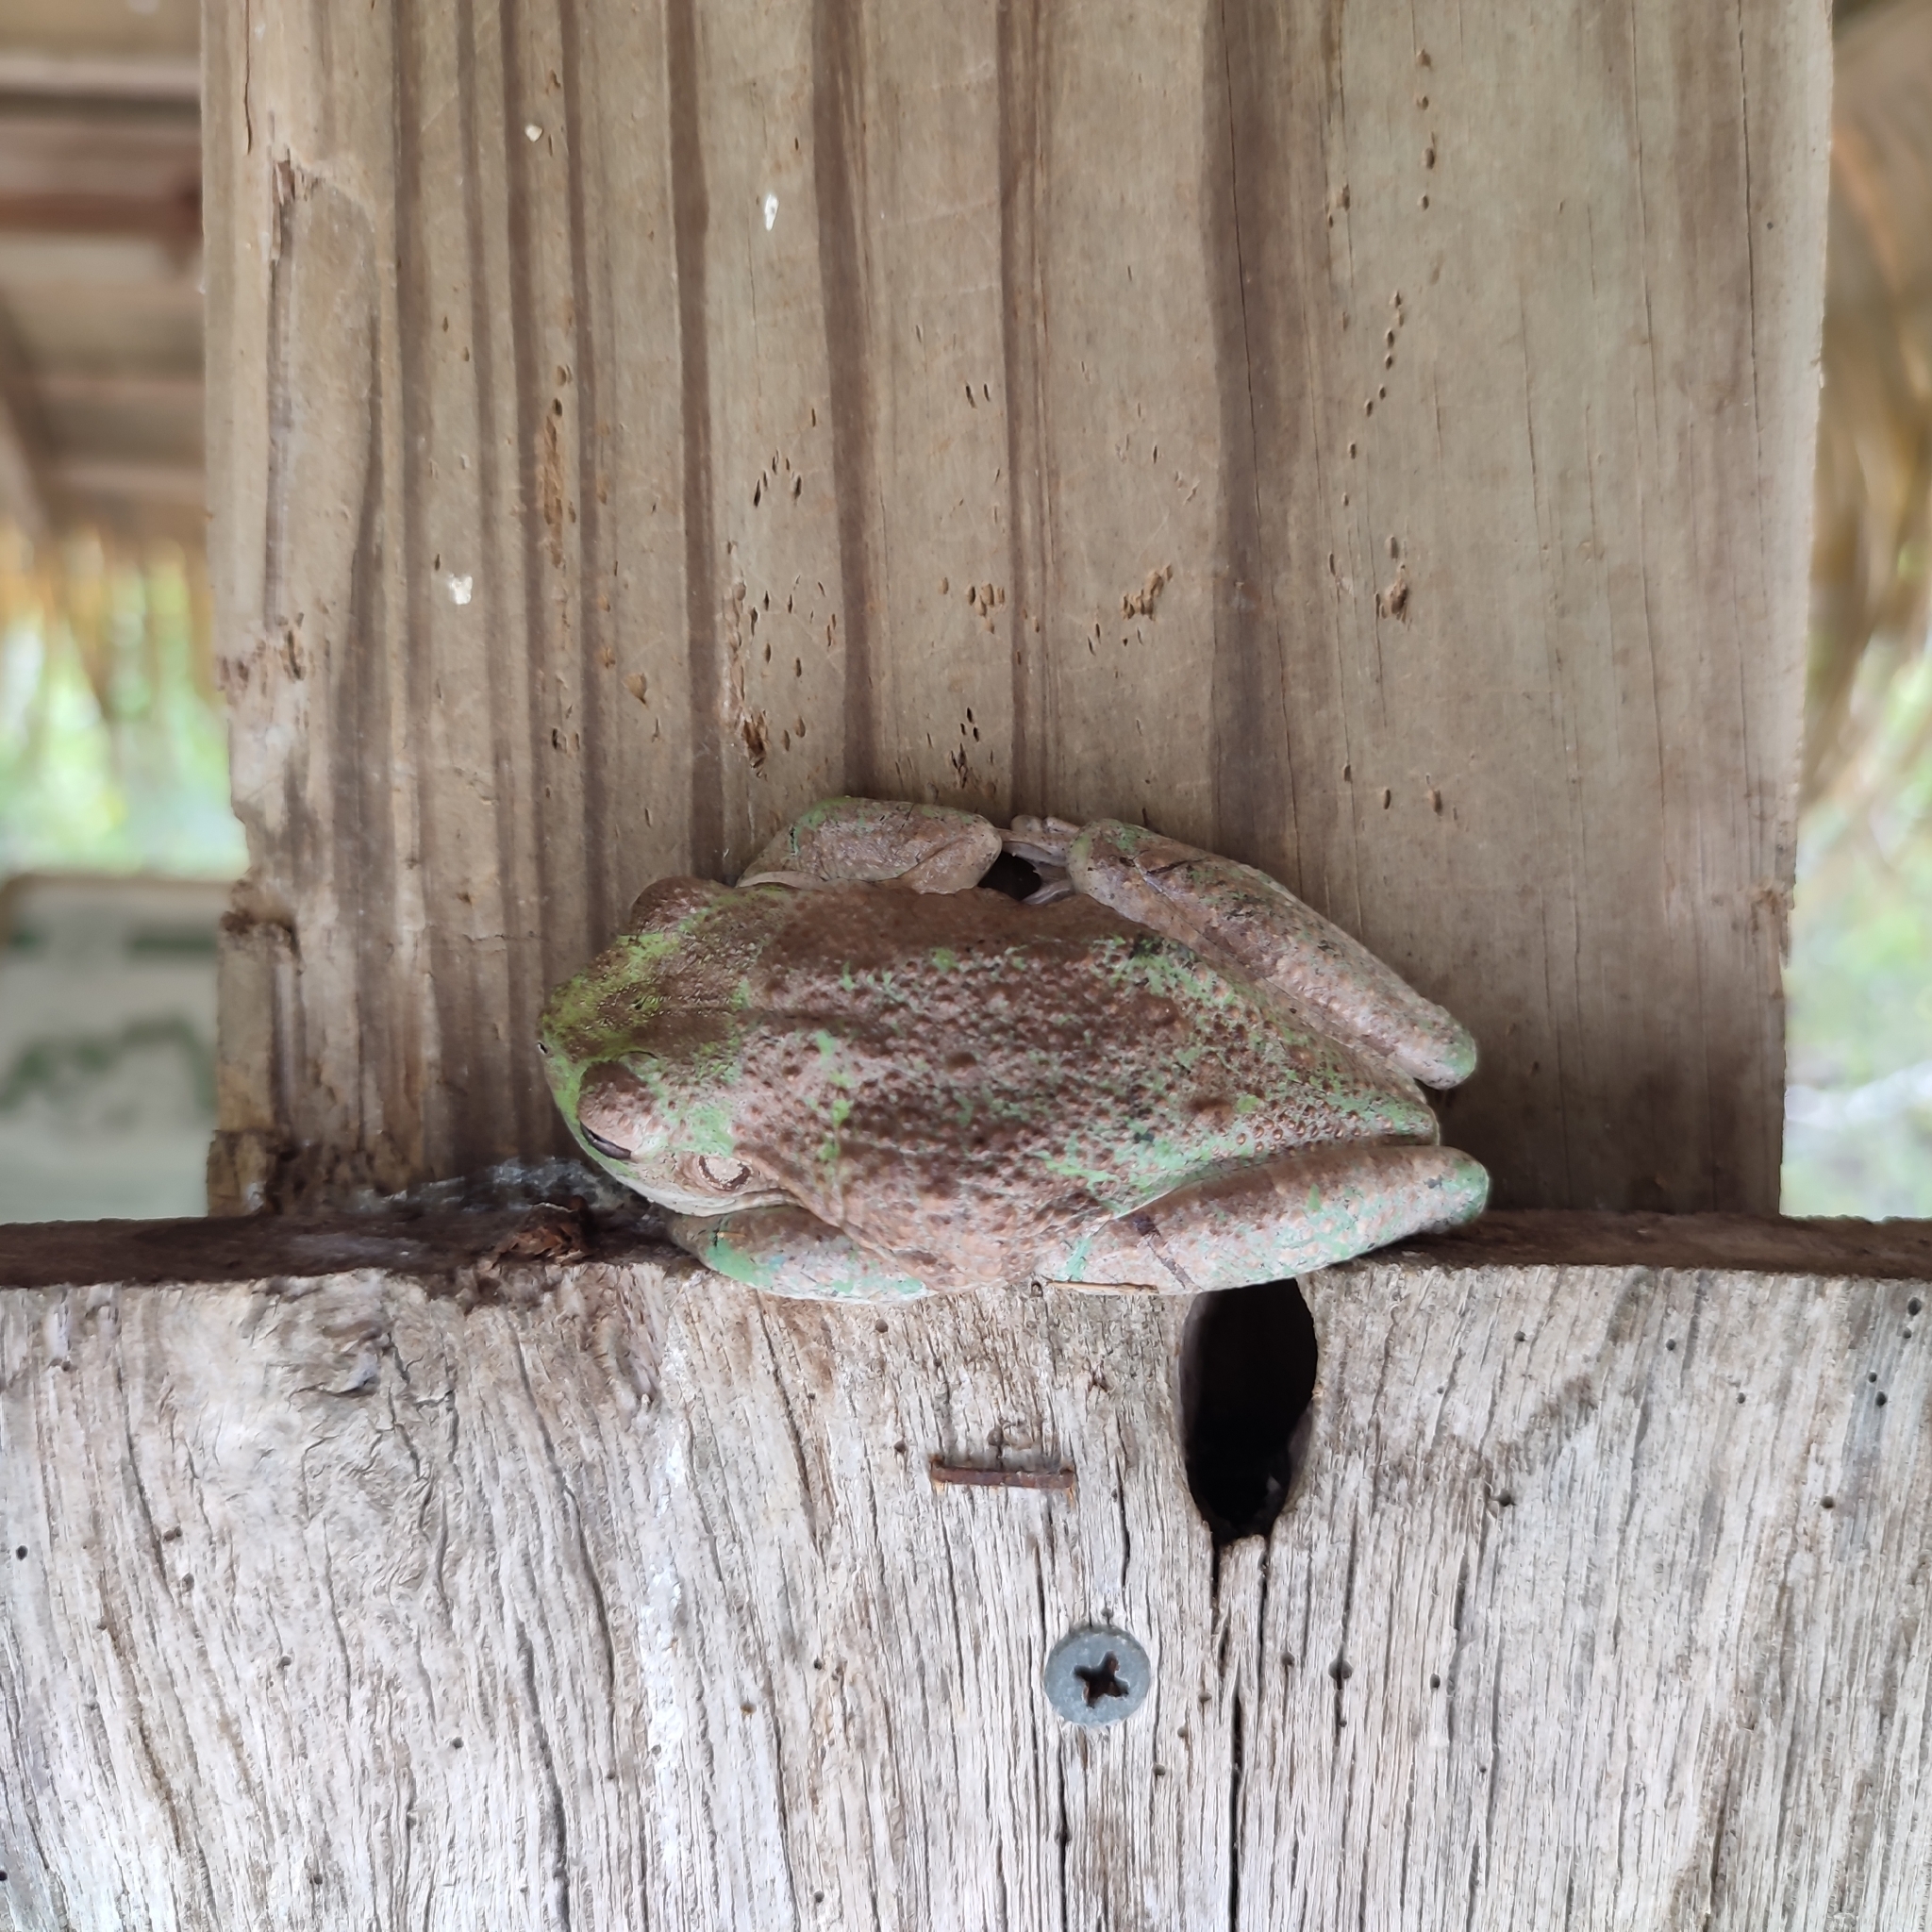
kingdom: Animalia
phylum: Chordata
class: Amphibia
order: Anura
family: Hylidae
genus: Osteopilus
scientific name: Osteopilus septentrionalis
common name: Cuban treefrog
